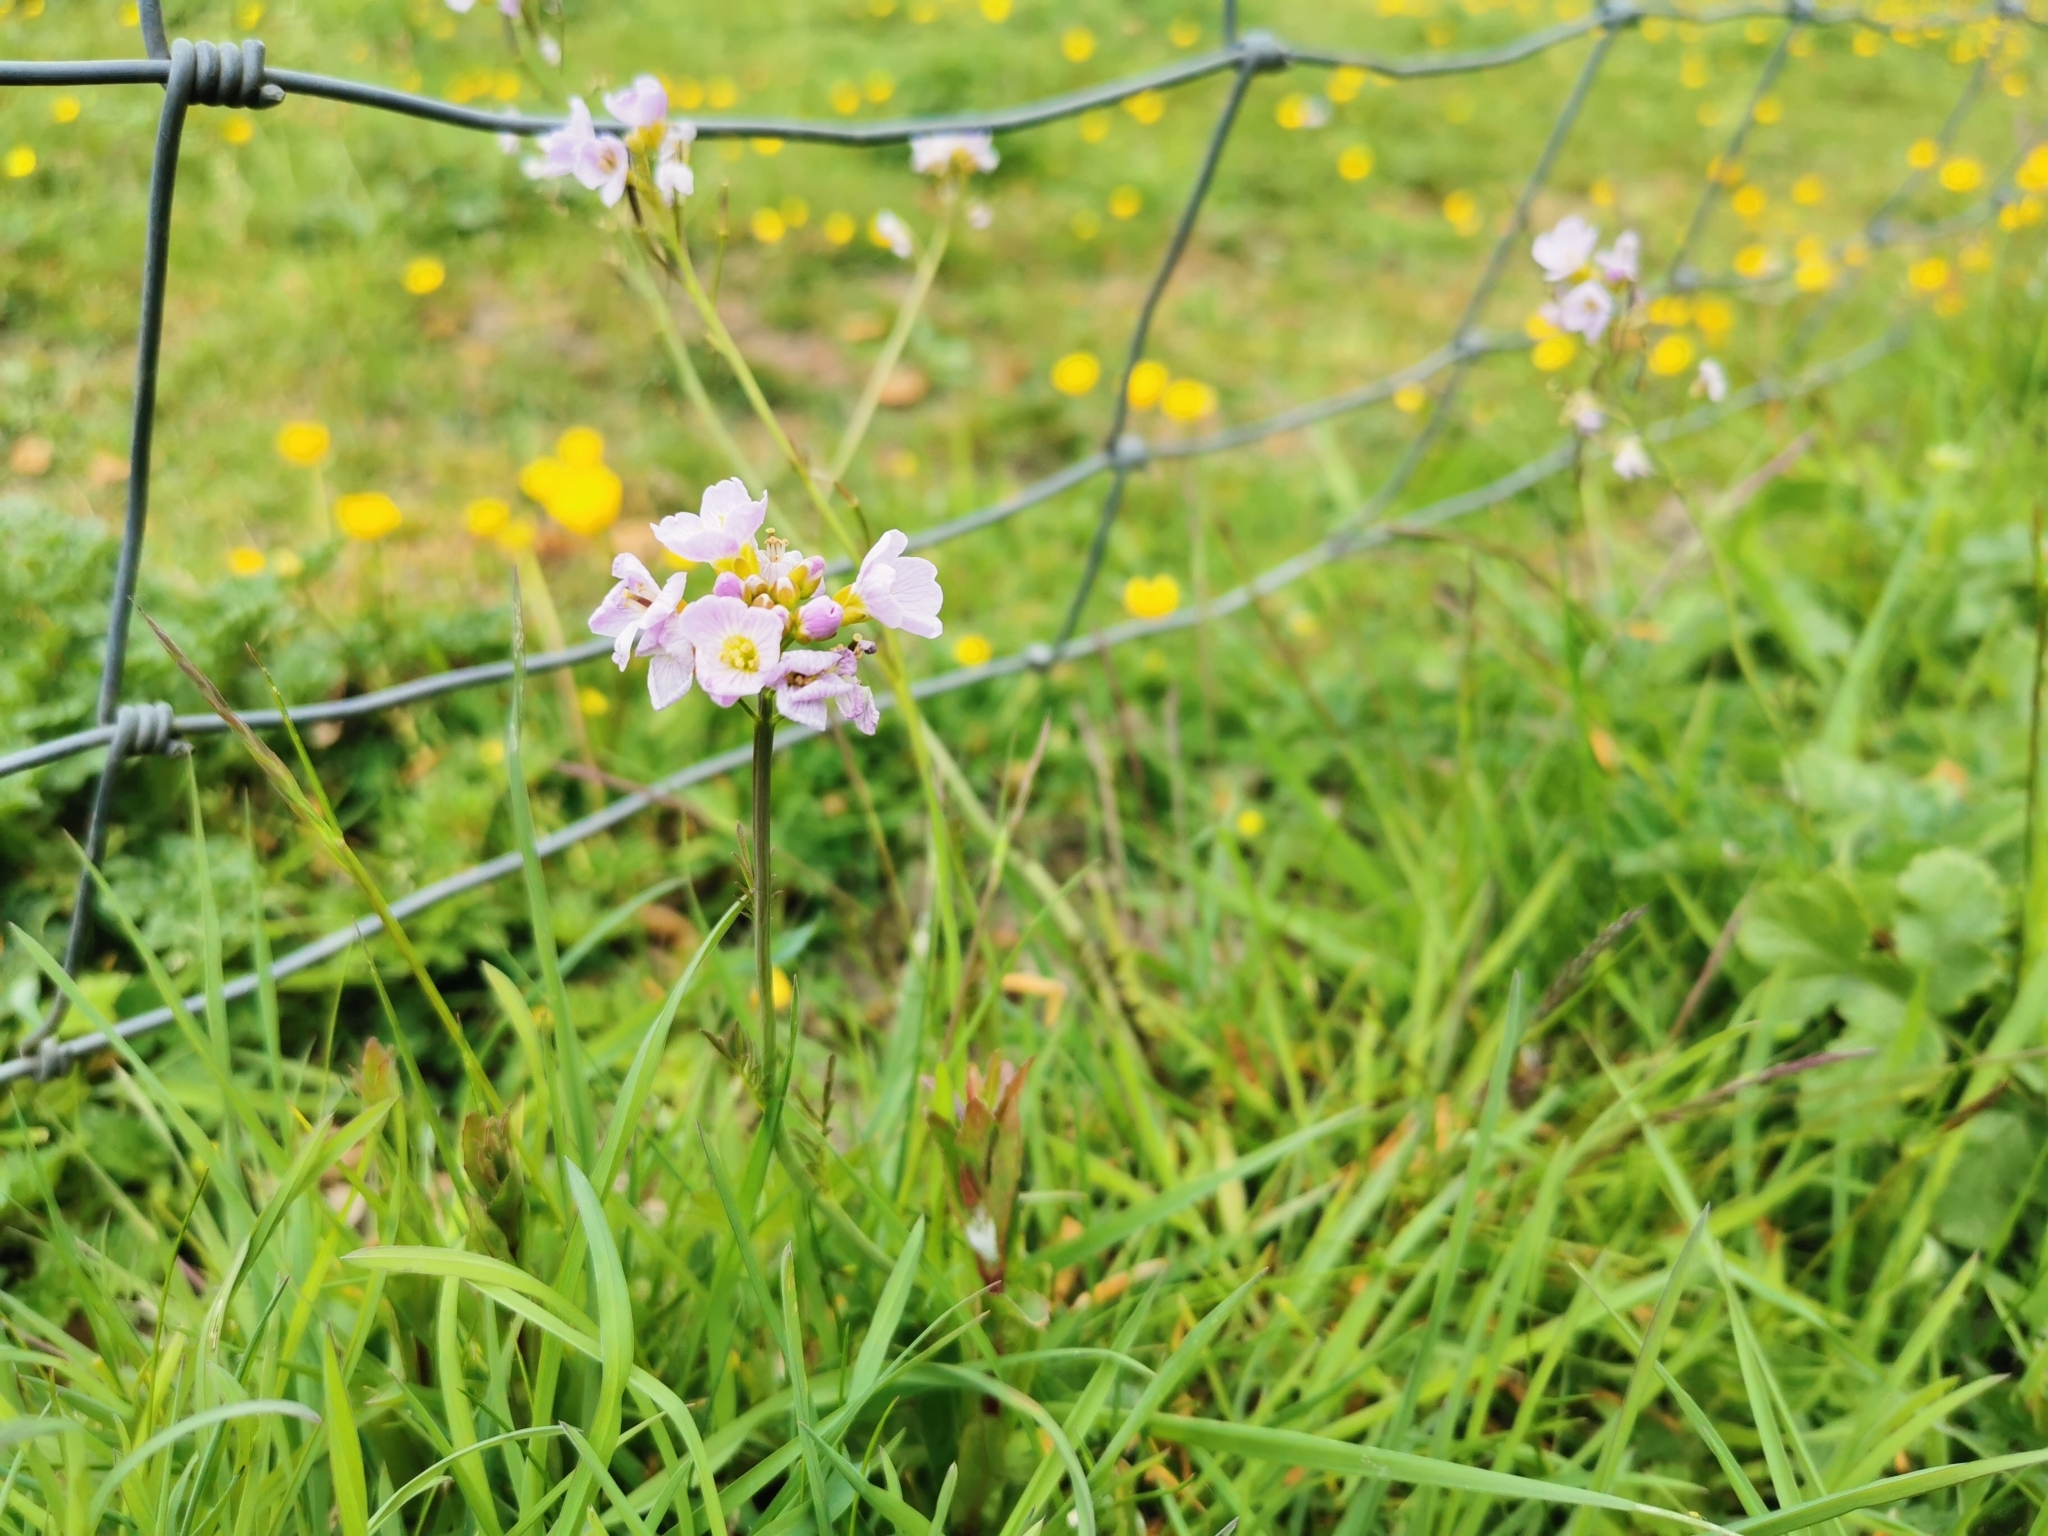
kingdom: Plantae
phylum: Tracheophyta
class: Magnoliopsida
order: Brassicales
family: Brassicaceae
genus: Cardamine
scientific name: Cardamine pratensis
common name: Cuckoo flower
